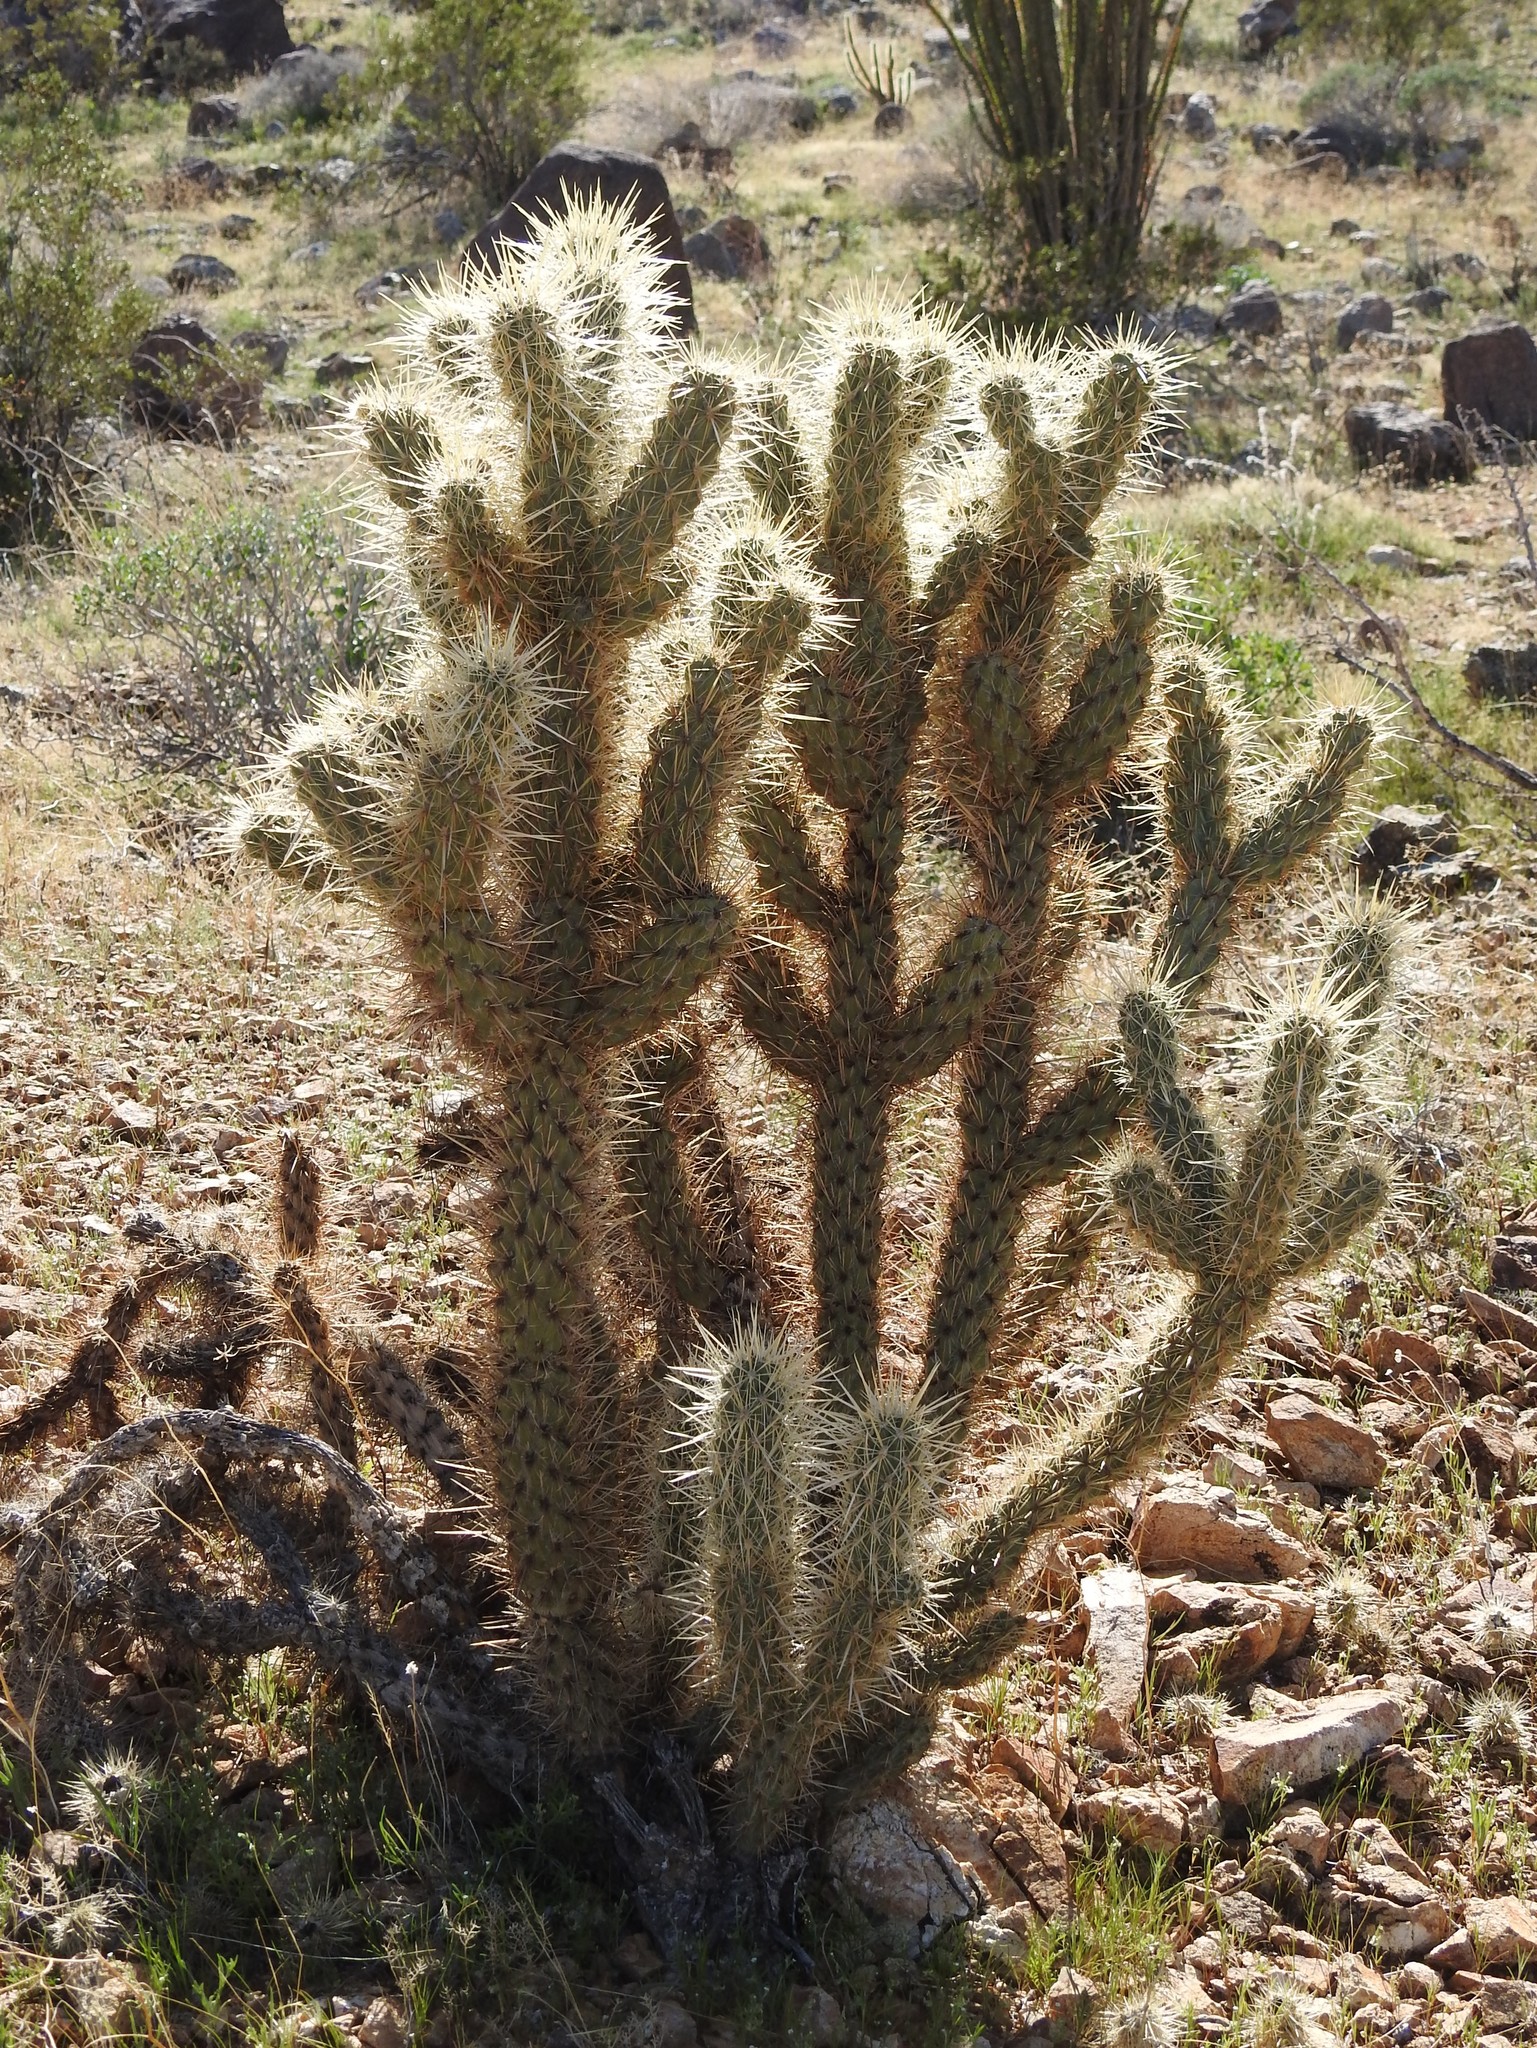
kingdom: Plantae
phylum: Tracheophyta
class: Magnoliopsida
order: Caryophyllales
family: Cactaceae
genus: Cylindropuntia
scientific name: Cylindropuntia ganderi
